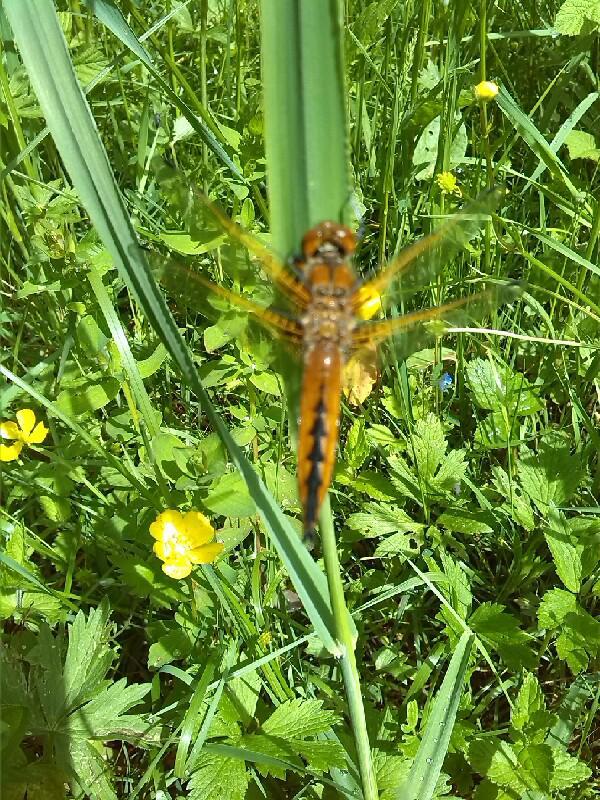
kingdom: Animalia
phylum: Arthropoda
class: Insecta
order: Odonata
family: Libellulidae
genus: Libellula
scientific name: Libellula fulva
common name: Blue chaser
